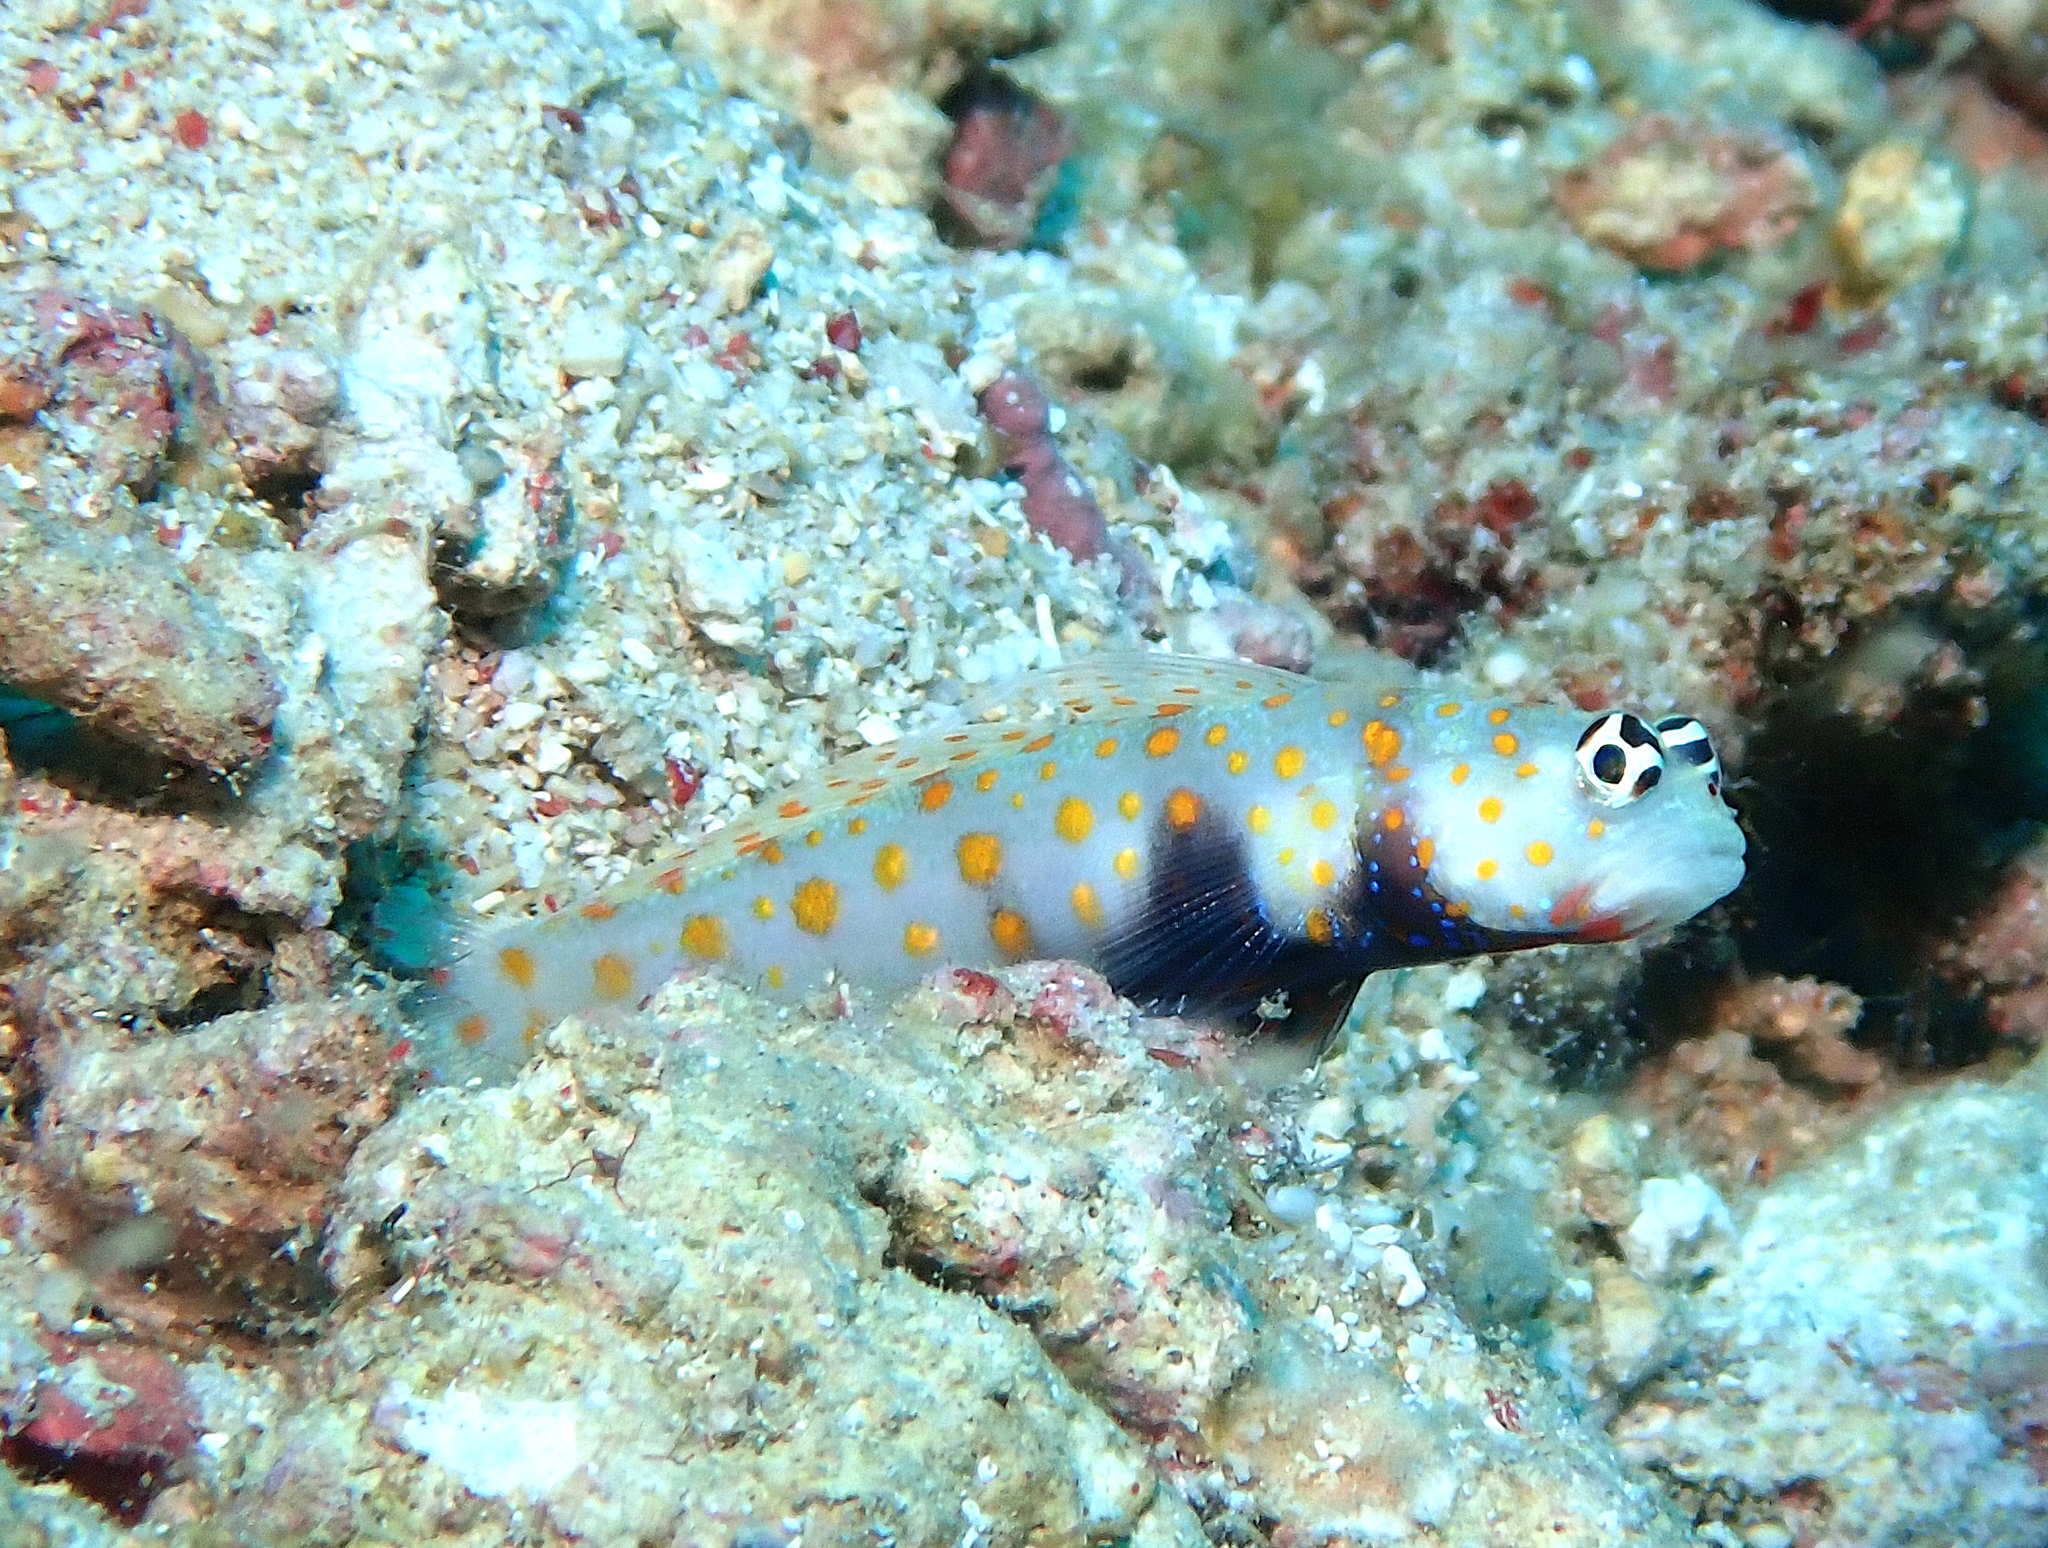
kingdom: Animalia
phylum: Chordata
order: Perciformes
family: Gobiidae
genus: Amblyeleotris
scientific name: Amblyeleotris guttata
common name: Black-chest shrimp-goby
